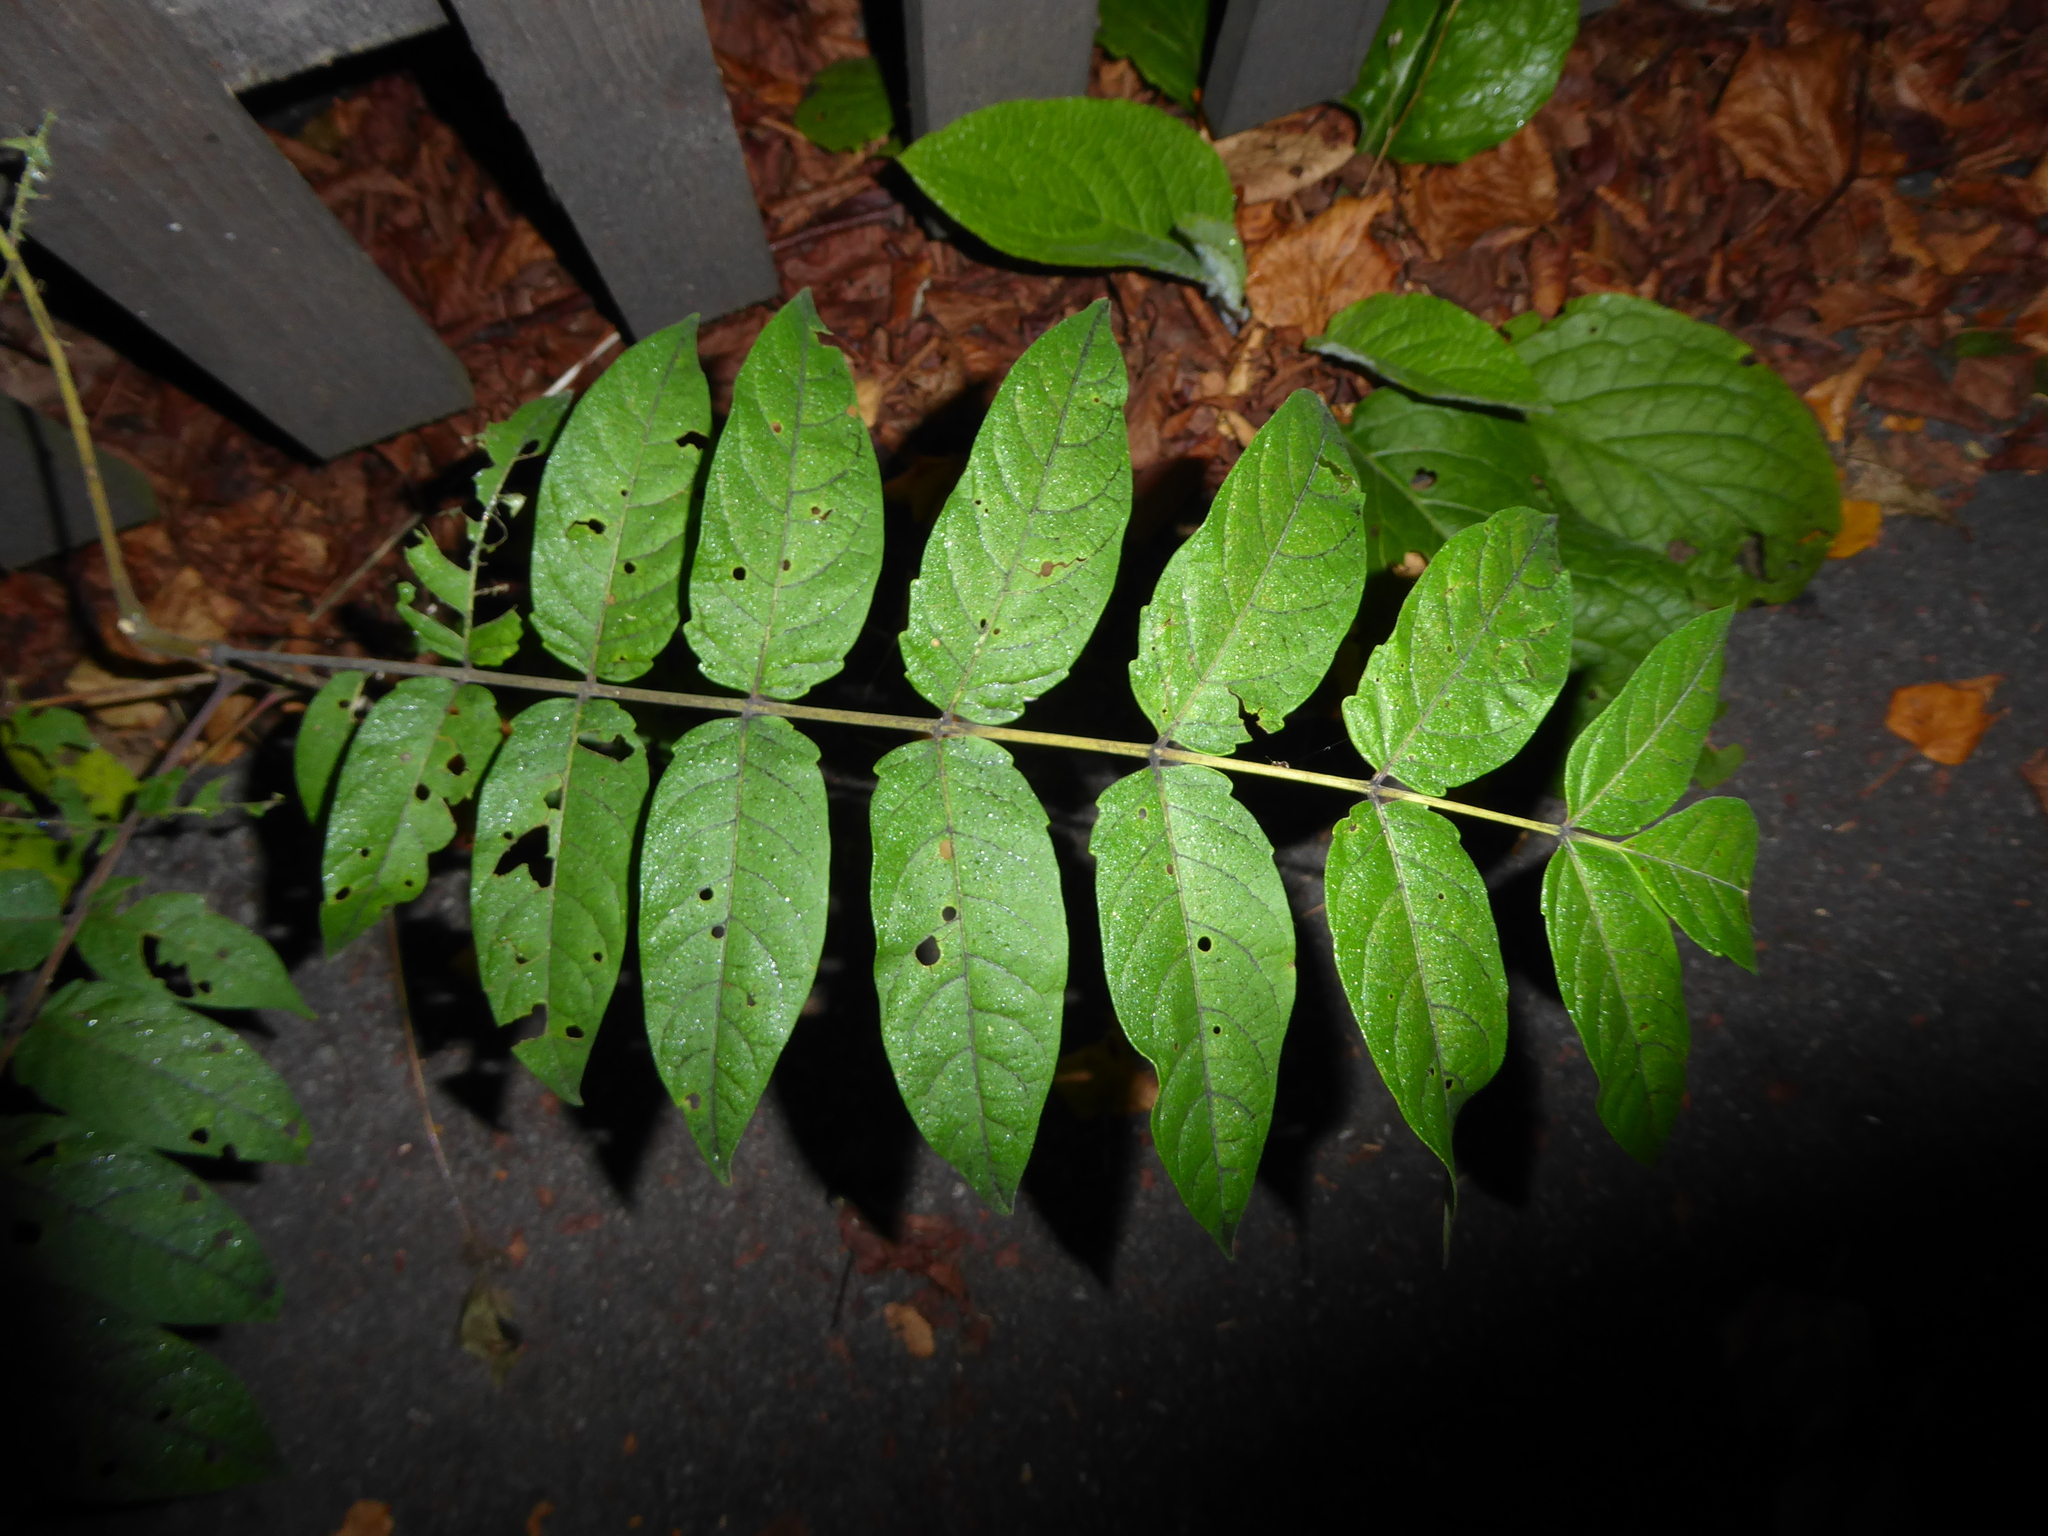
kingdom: Plantae
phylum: Tracheophyta
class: Magnoliopsida
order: Sapindales
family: Simaroubaceae
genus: Ailanthus
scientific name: Ailanthus altissima
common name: Tree-of-heaven
